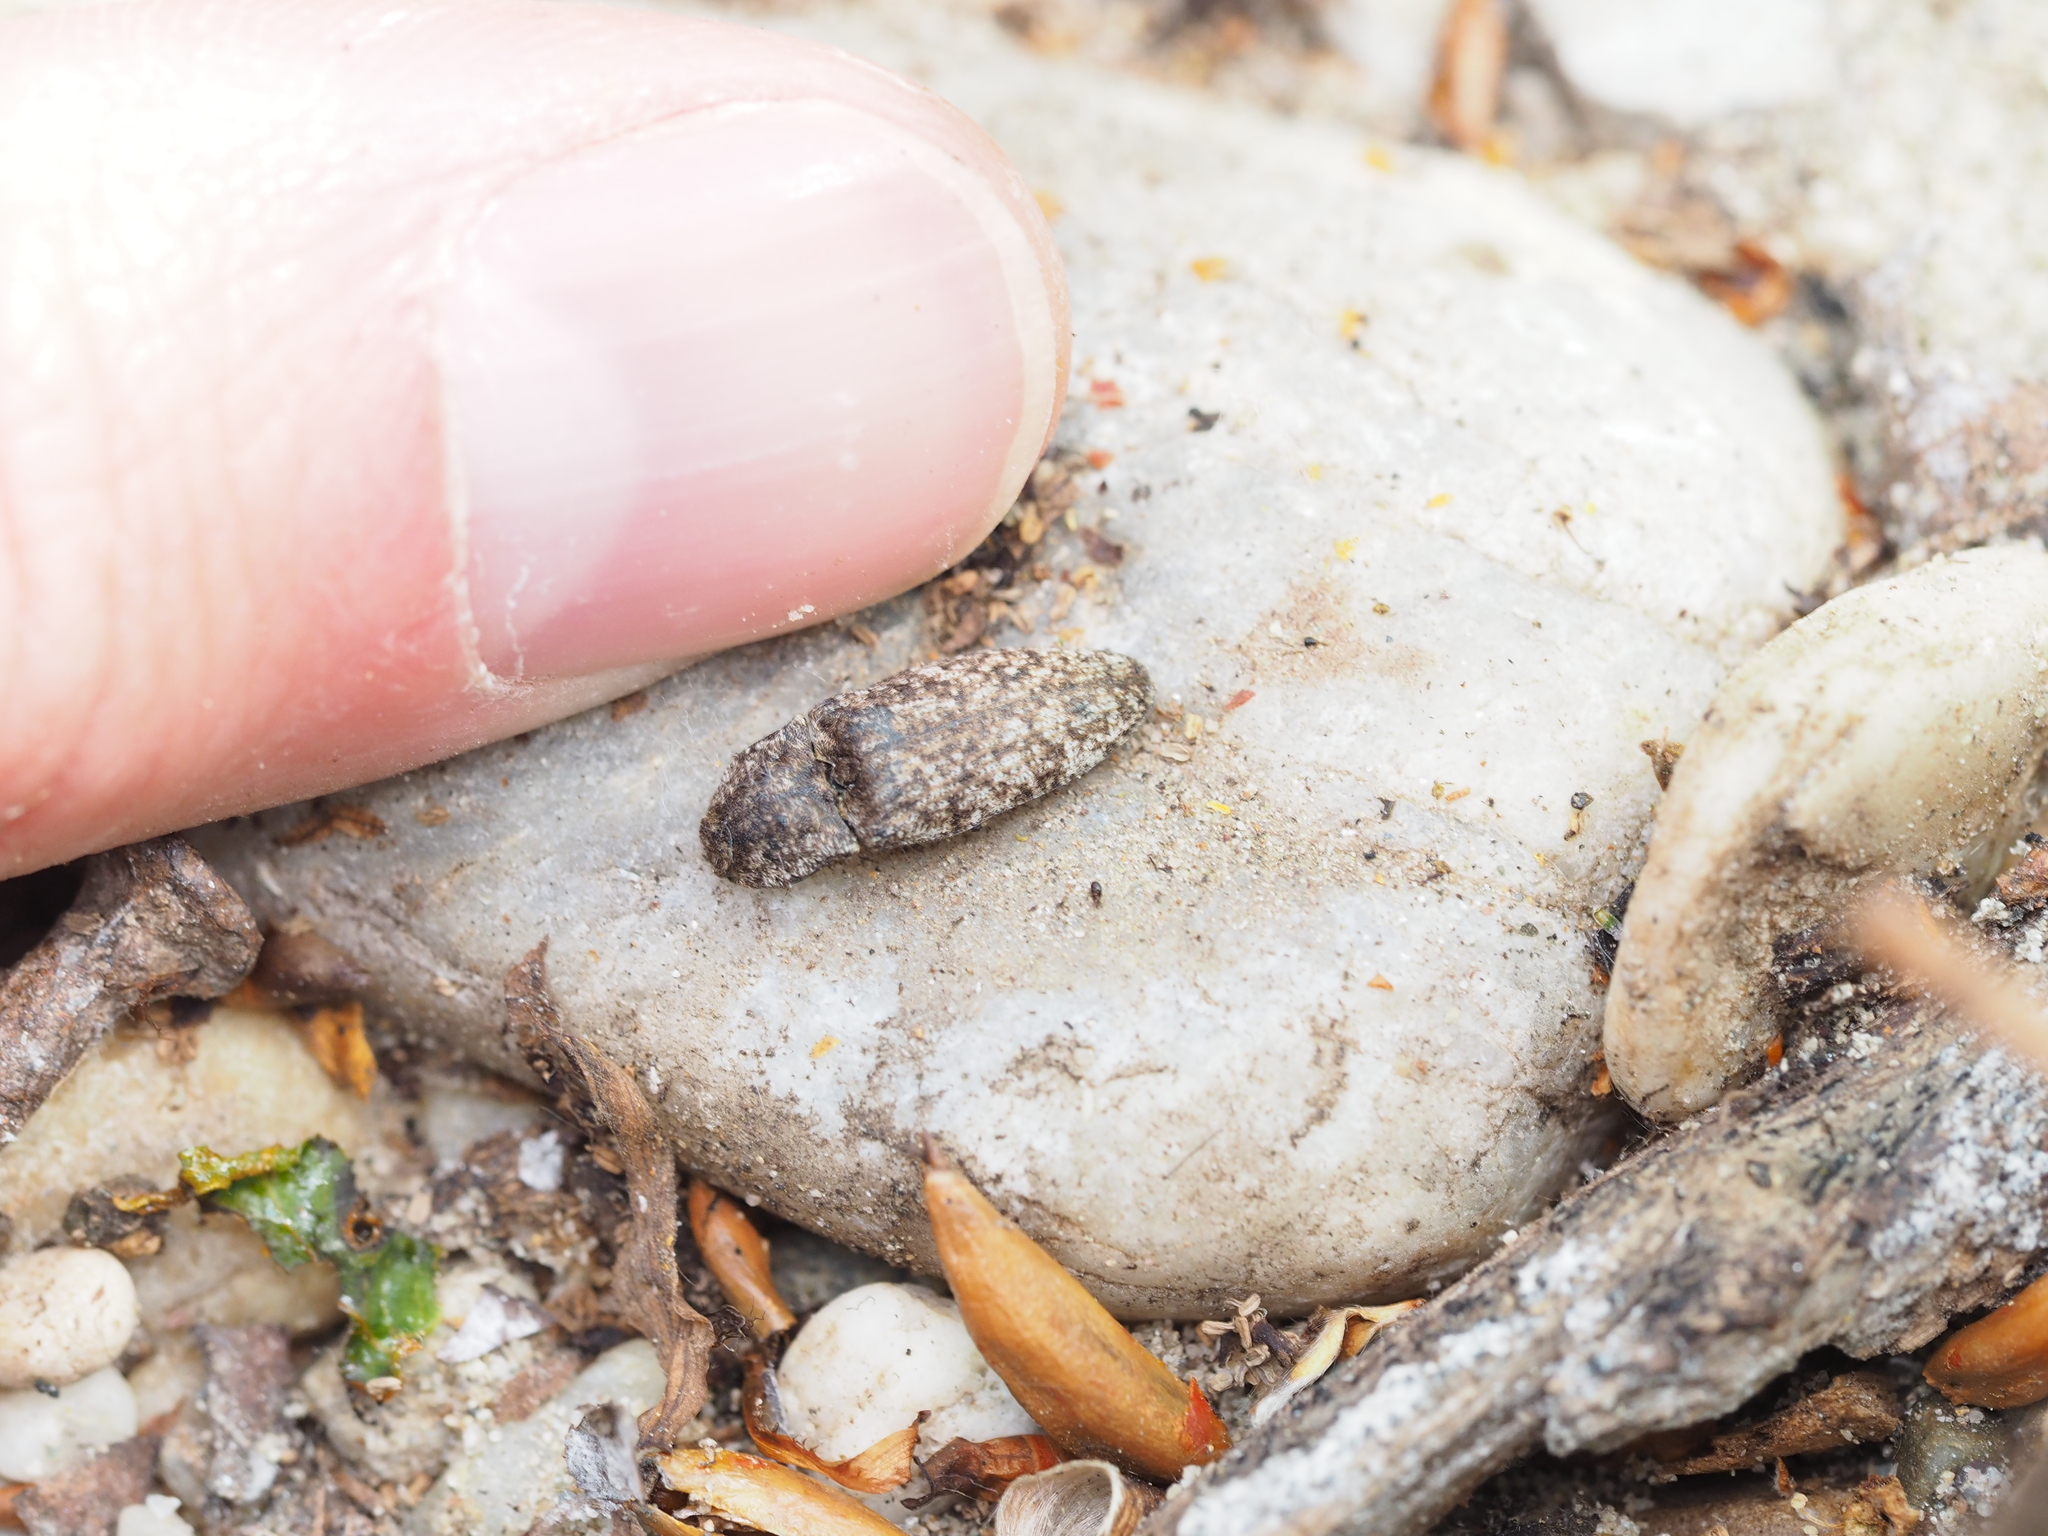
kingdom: Animalia
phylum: Arthropoda
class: Insecta
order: Coleoptera
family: Elateridae
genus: Agrypnus
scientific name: Agrypnus murinus
